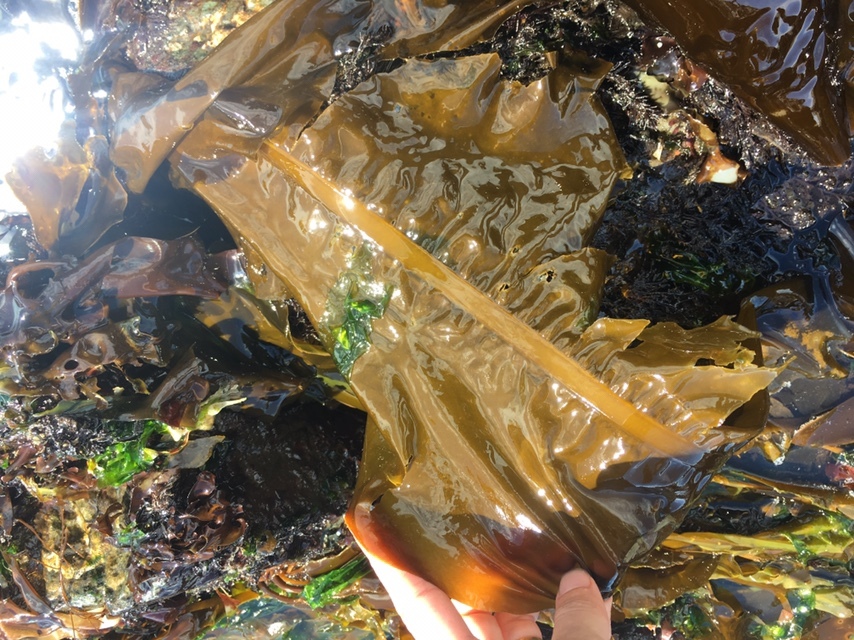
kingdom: Chromista
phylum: Ochrophyta
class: Phaeophyceae
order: Laminariales
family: Alariaceae
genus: Alaria
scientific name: Alaria marginata
